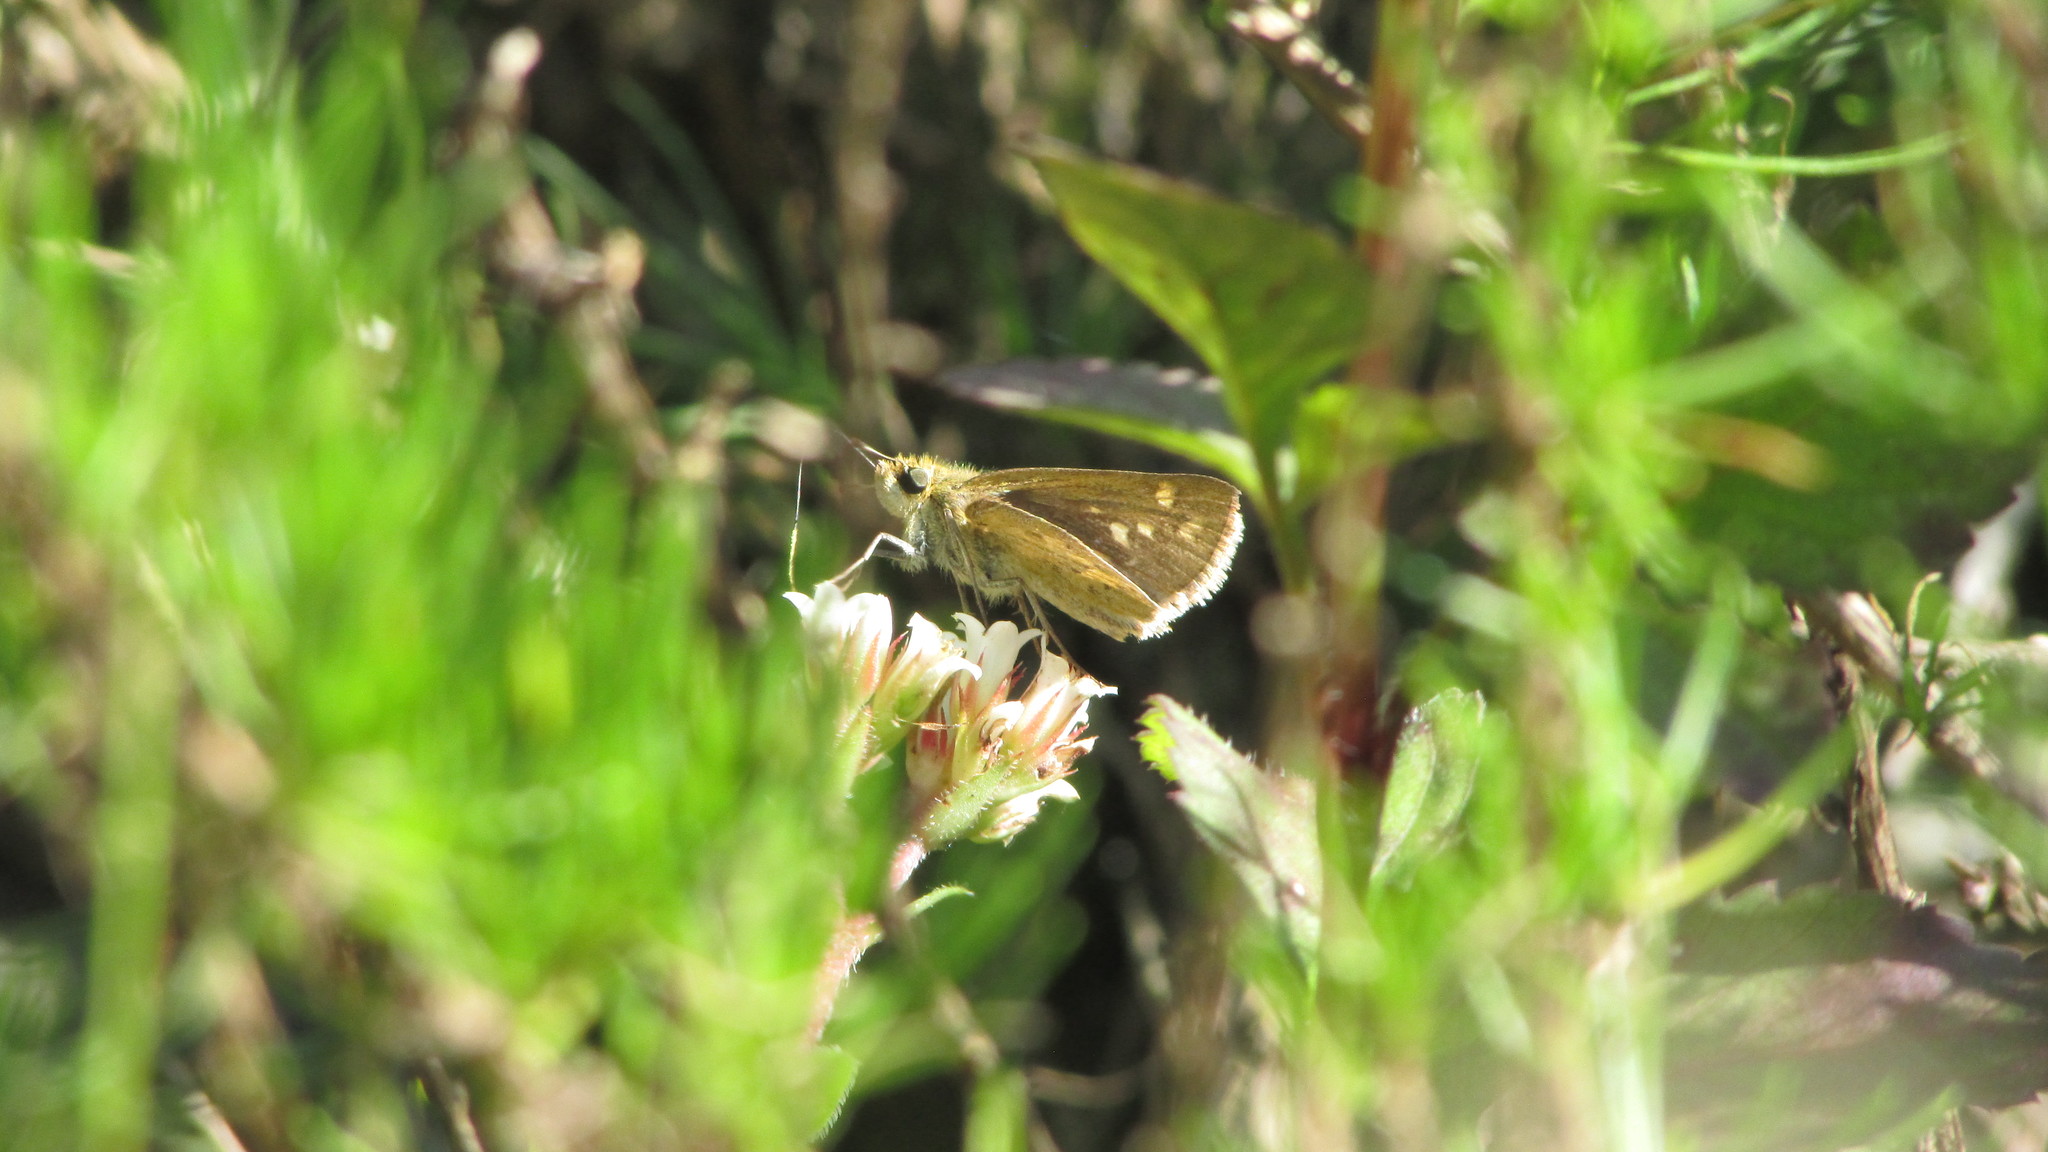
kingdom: Animalia
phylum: Arthropoda
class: Insecta
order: Hymenoptera
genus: Afrogenes
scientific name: Afrogenes
